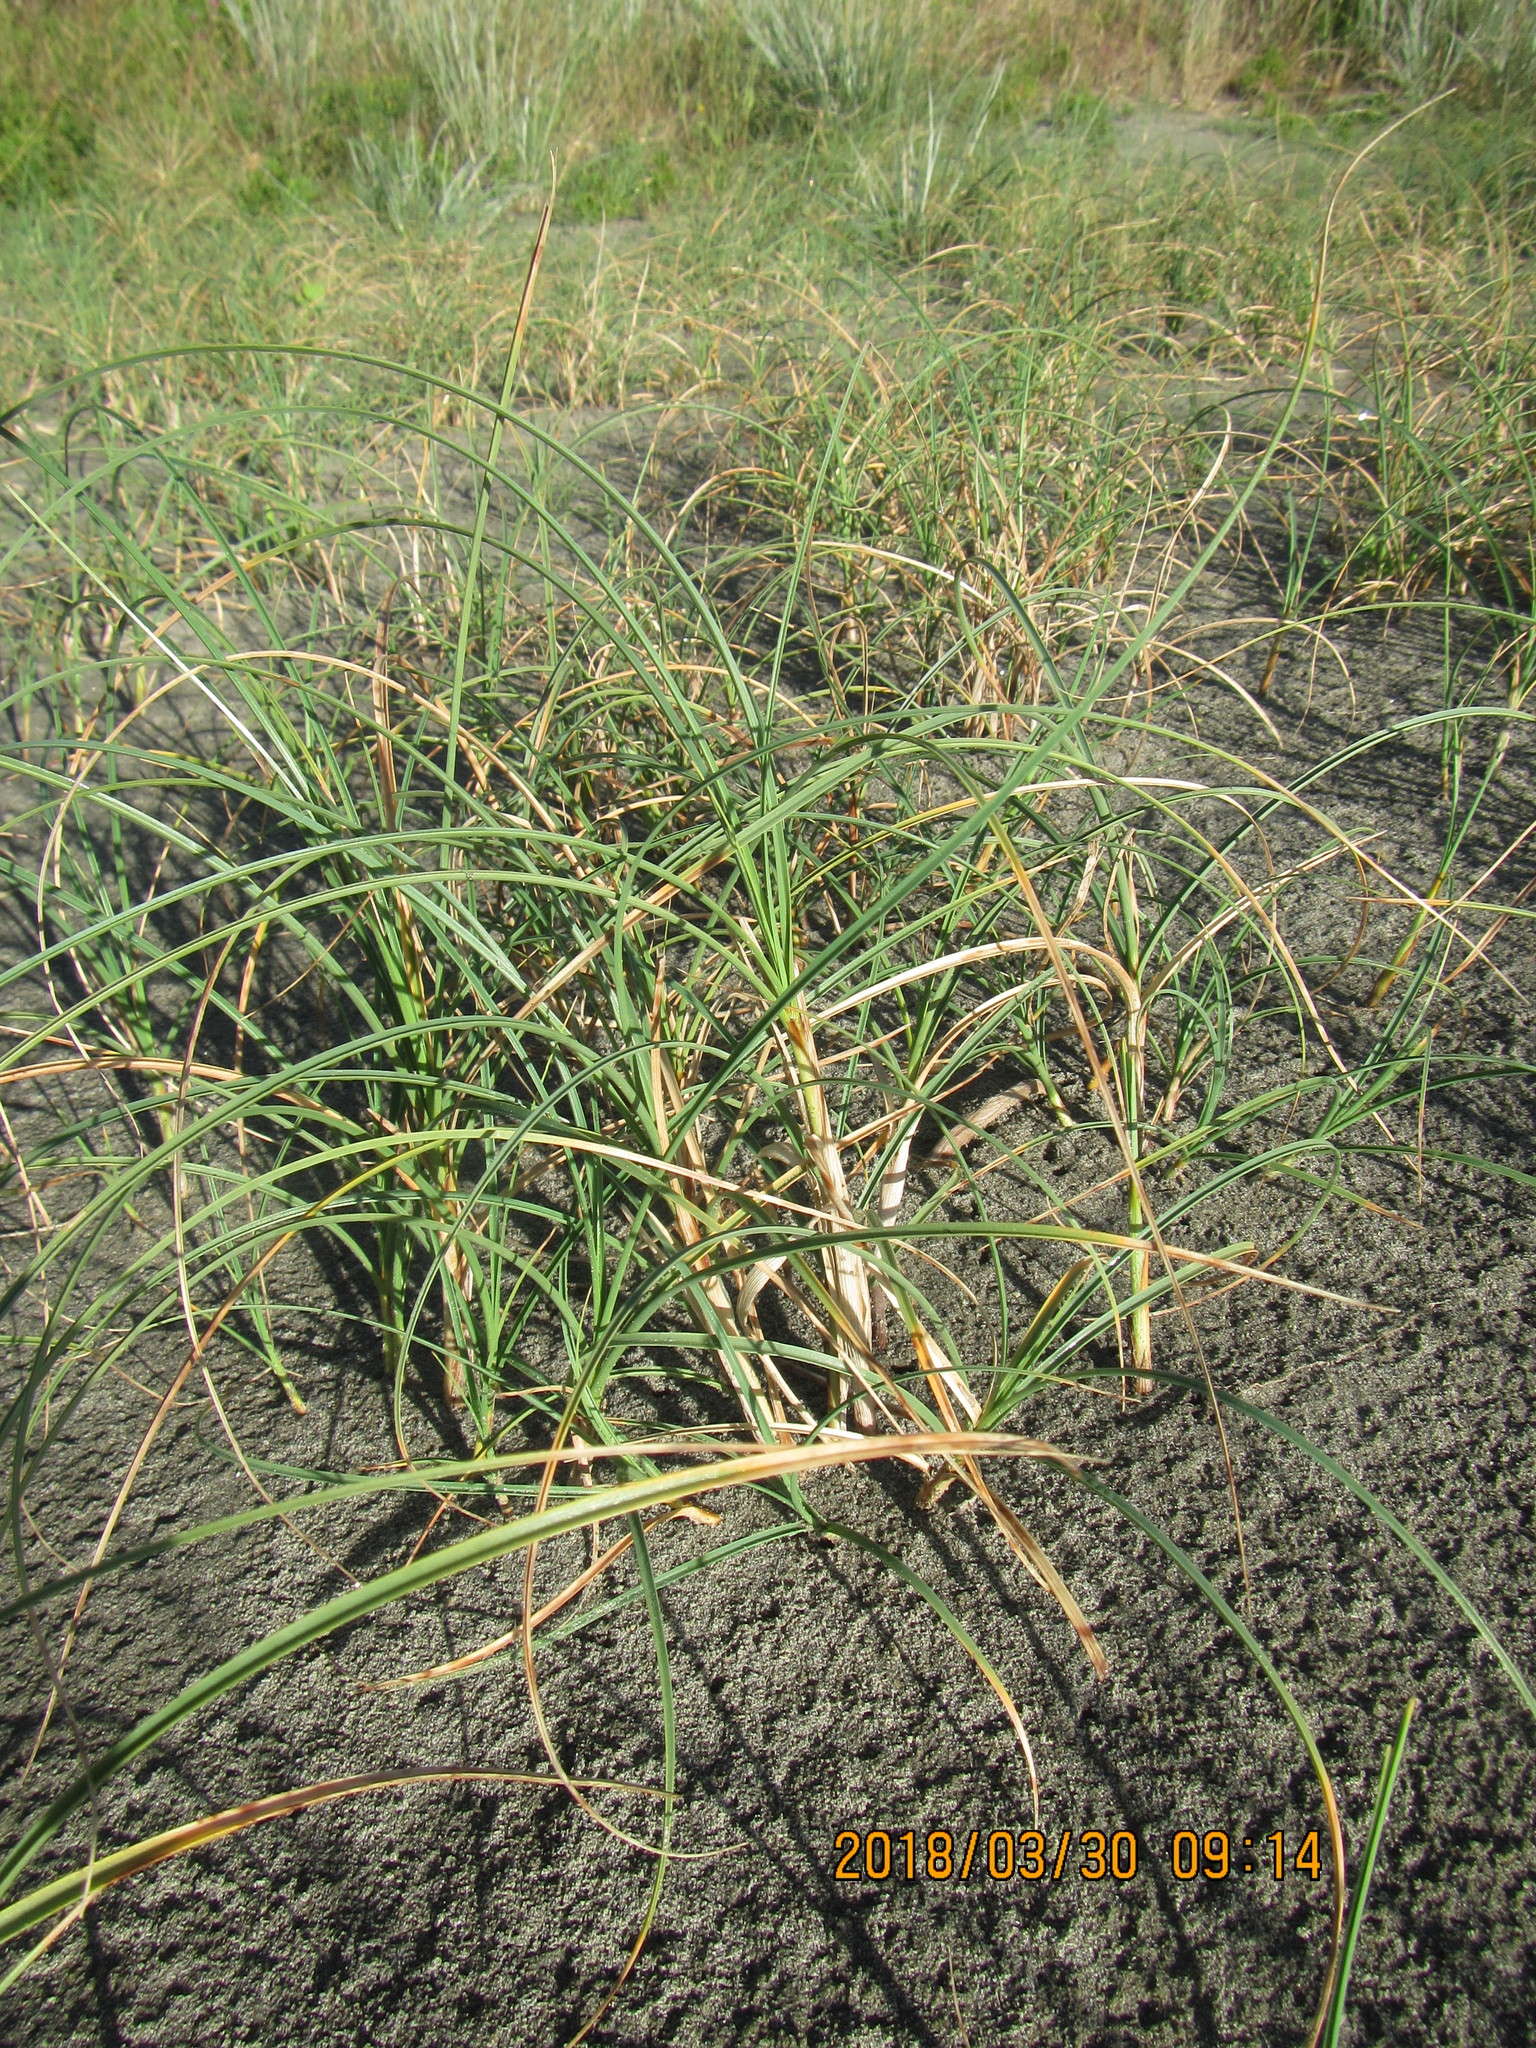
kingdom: Plantae
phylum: Tracheophyta
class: Liliopsida
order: Poales
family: Cyperaceae
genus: Carex
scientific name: Carex pumila
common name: Dwarf sedge
